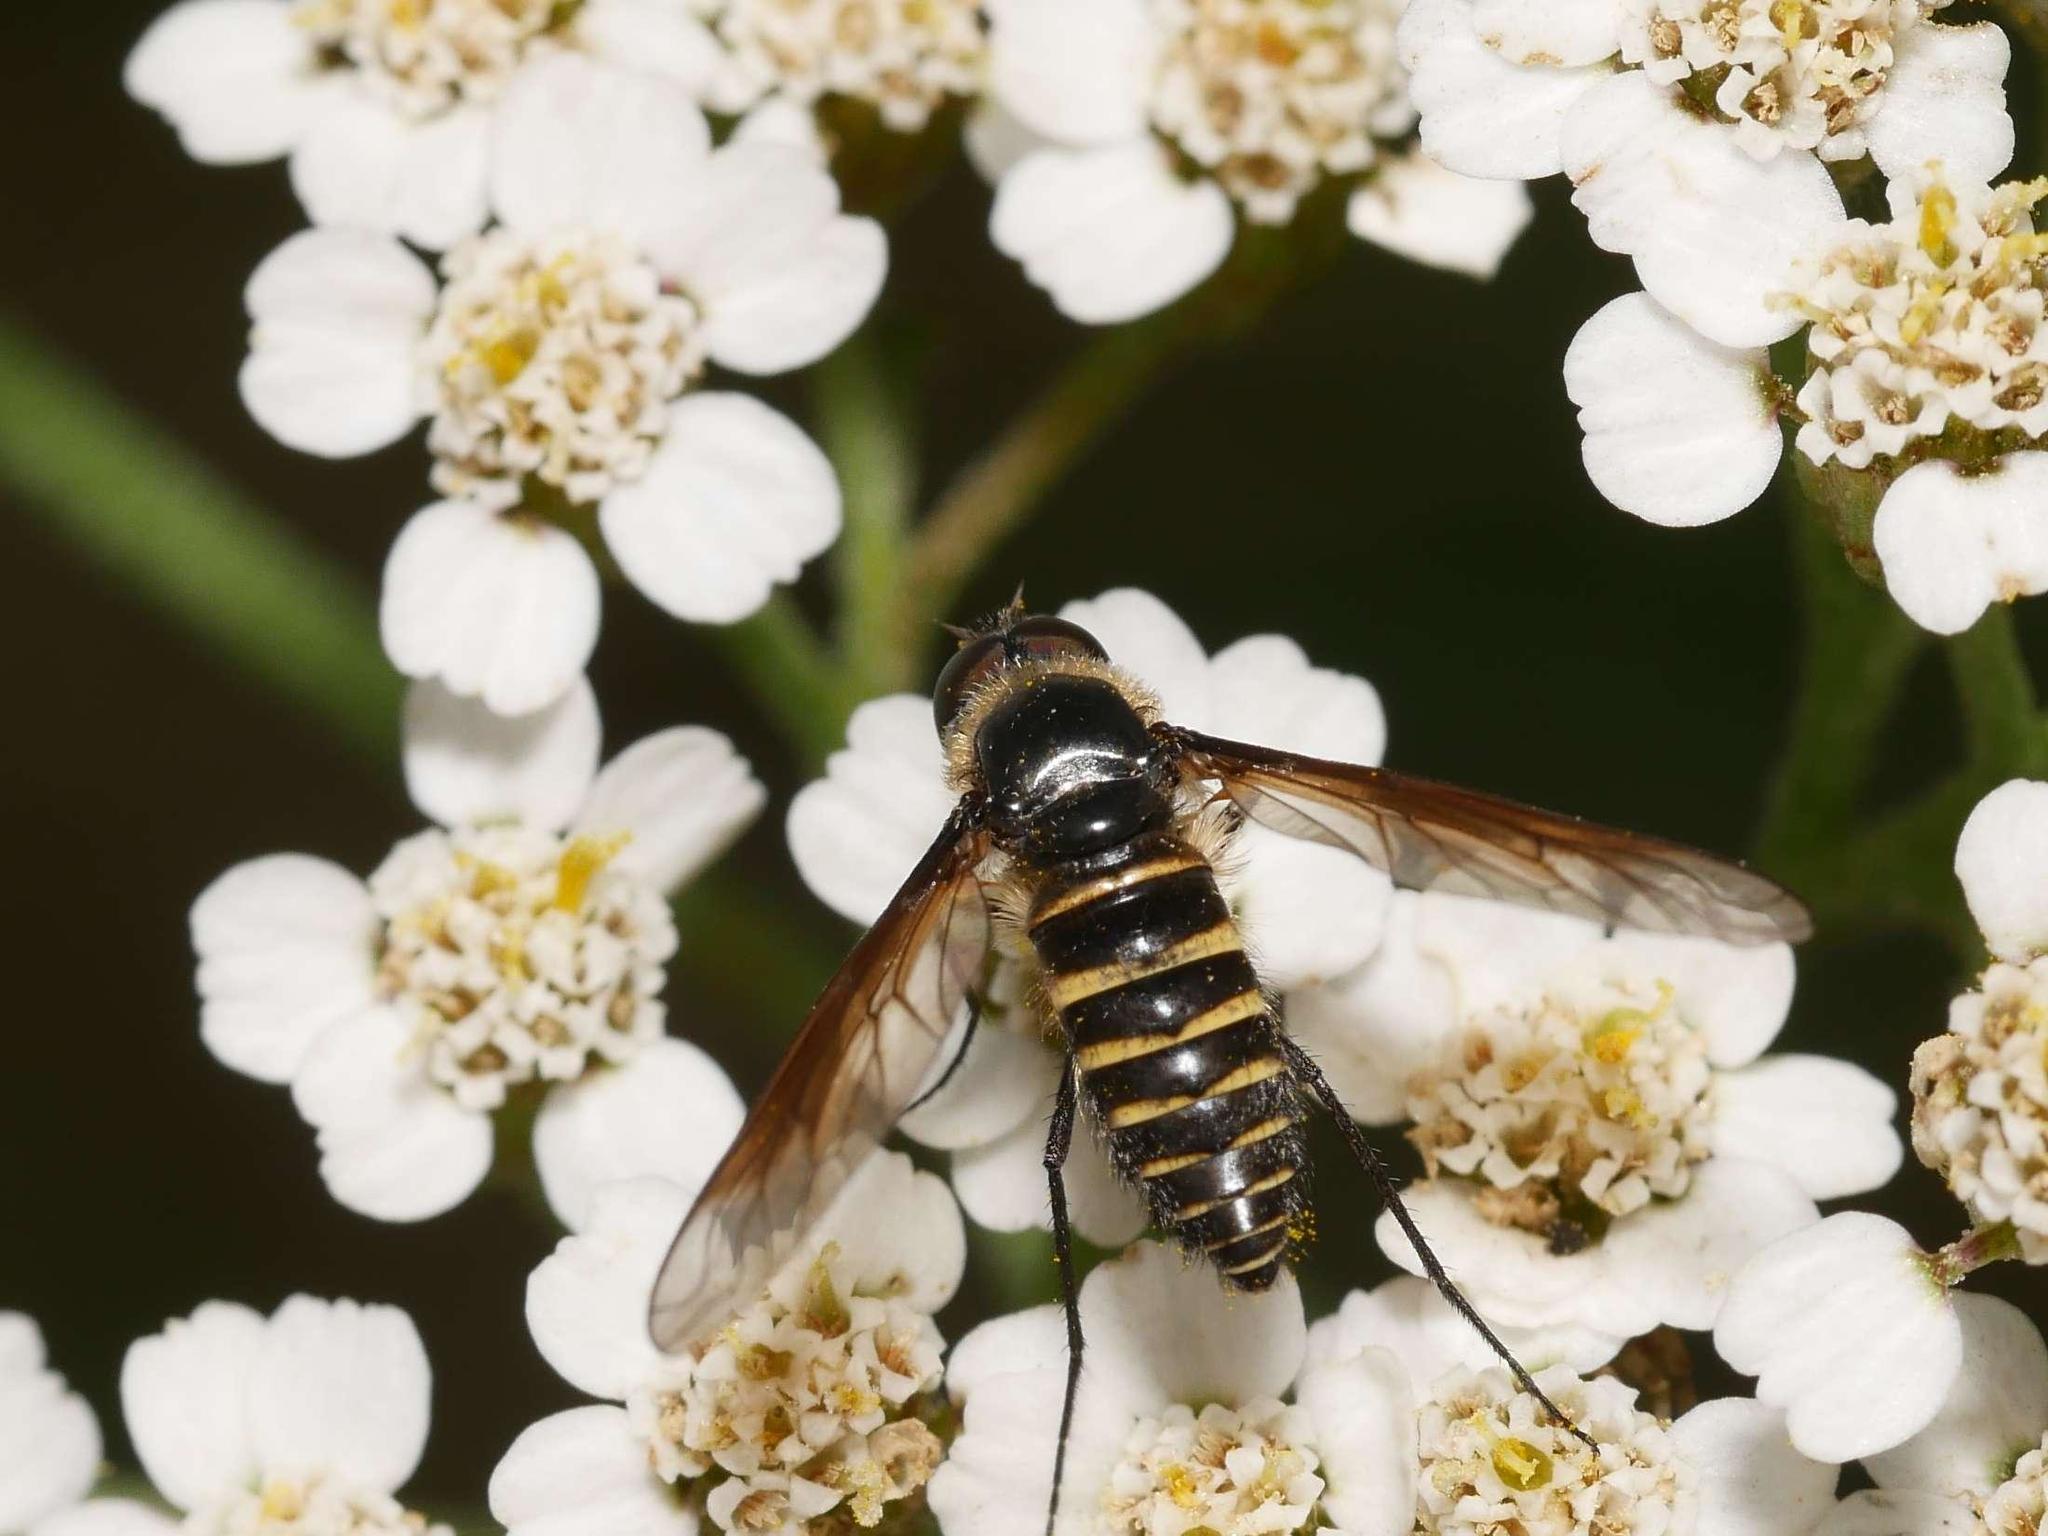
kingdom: Animalia
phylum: Arthropoda
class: Insecta
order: Diptera
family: Bombyliidae
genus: Lomatia
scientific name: Lomatia lateralis
